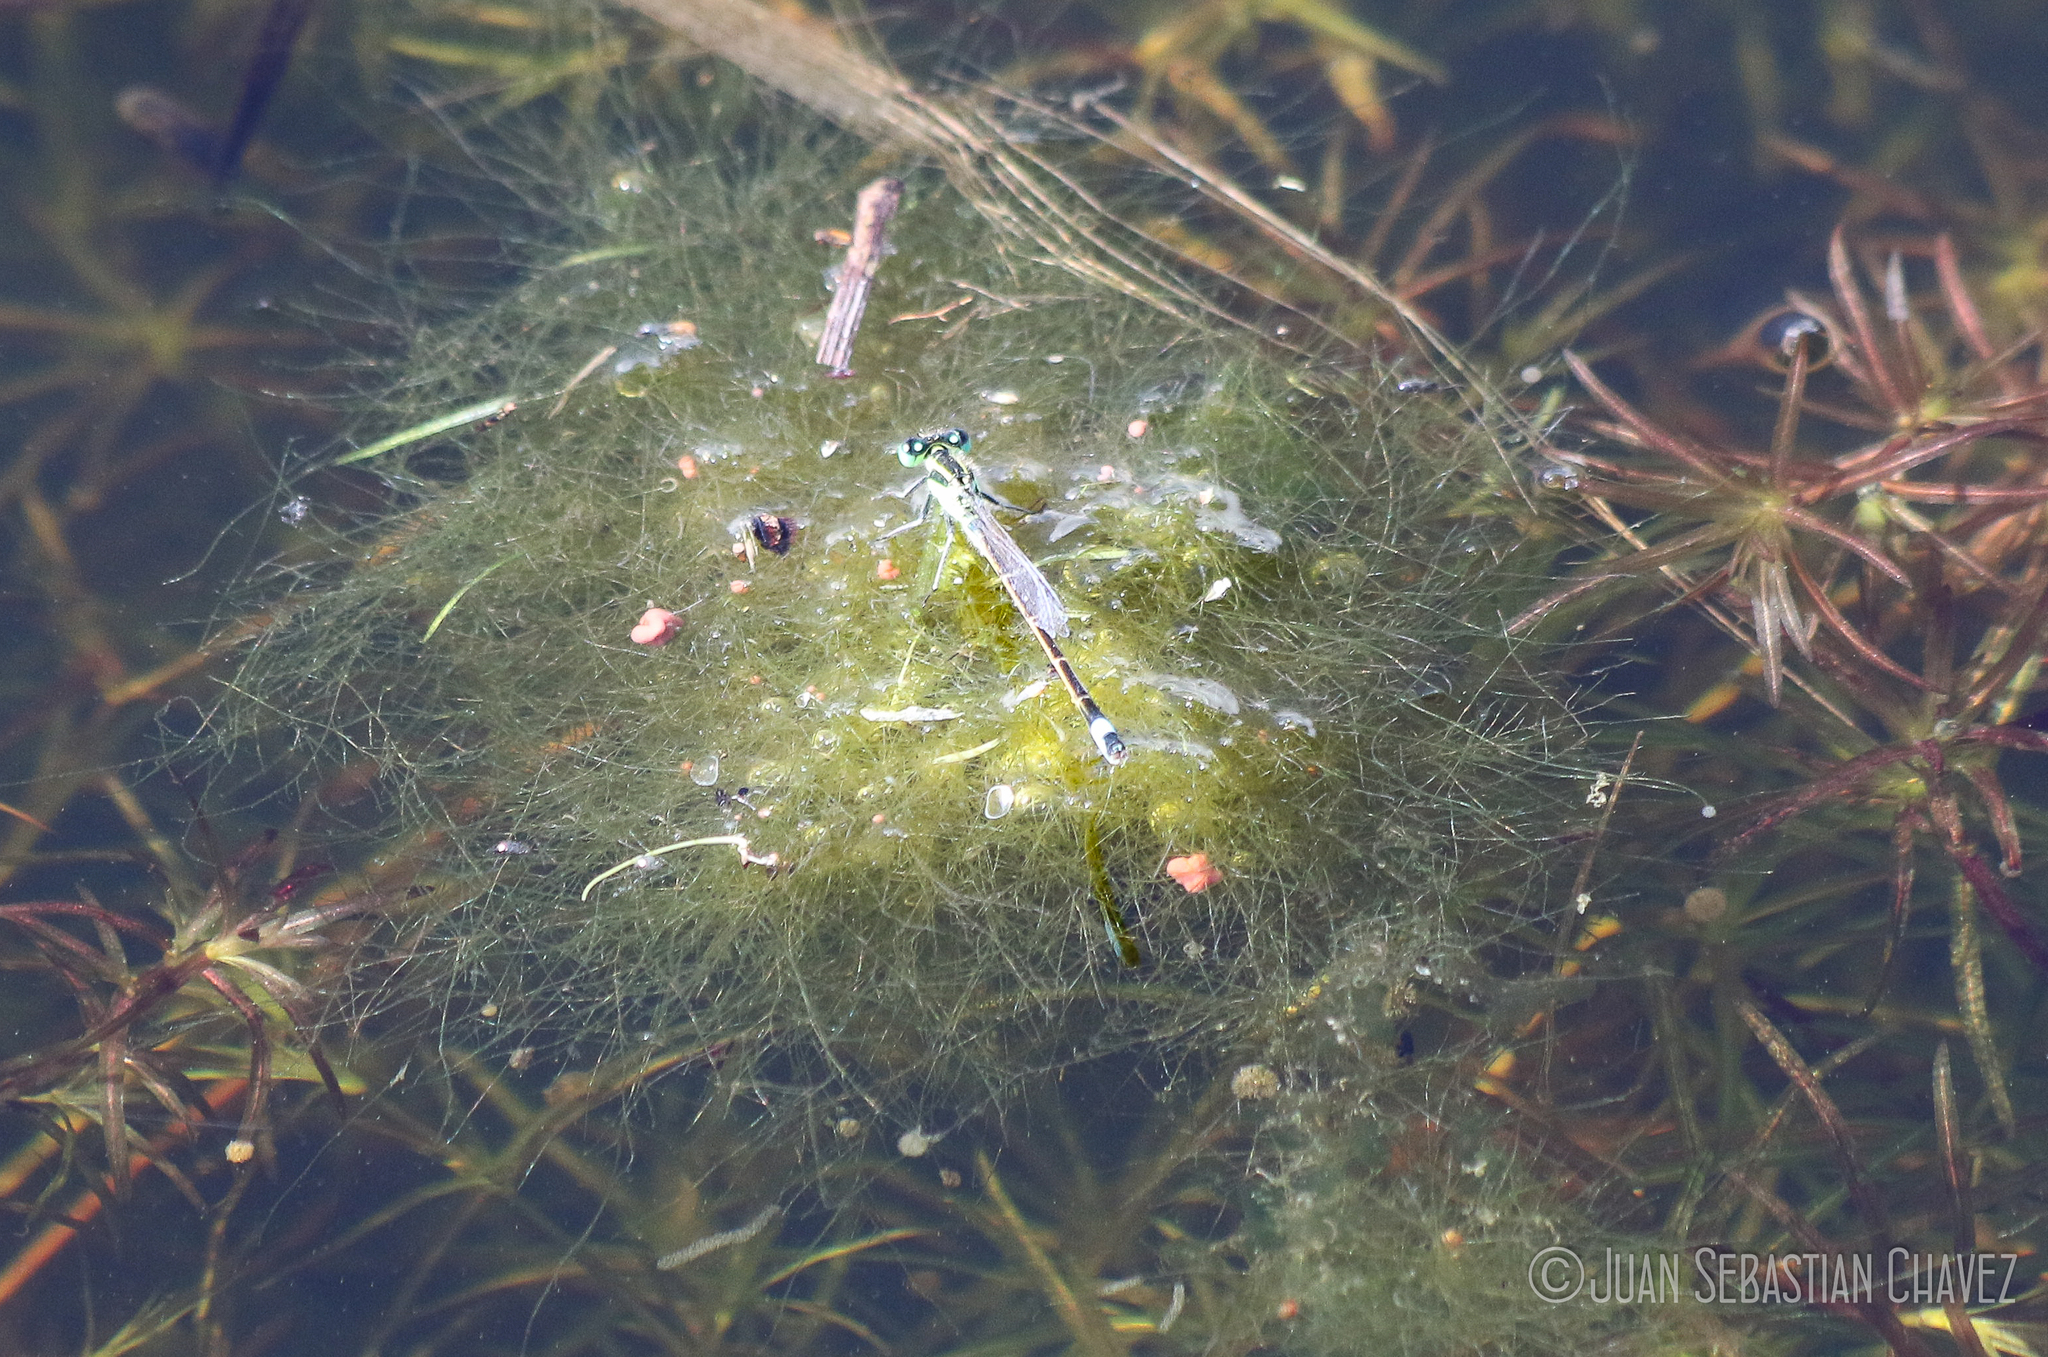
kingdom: Animalia
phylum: Arthropoda
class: Insecta
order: Odonata
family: Coenagrionidae
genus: Ischnura
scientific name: Ischnura ramburii
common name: Rambur's forktail
